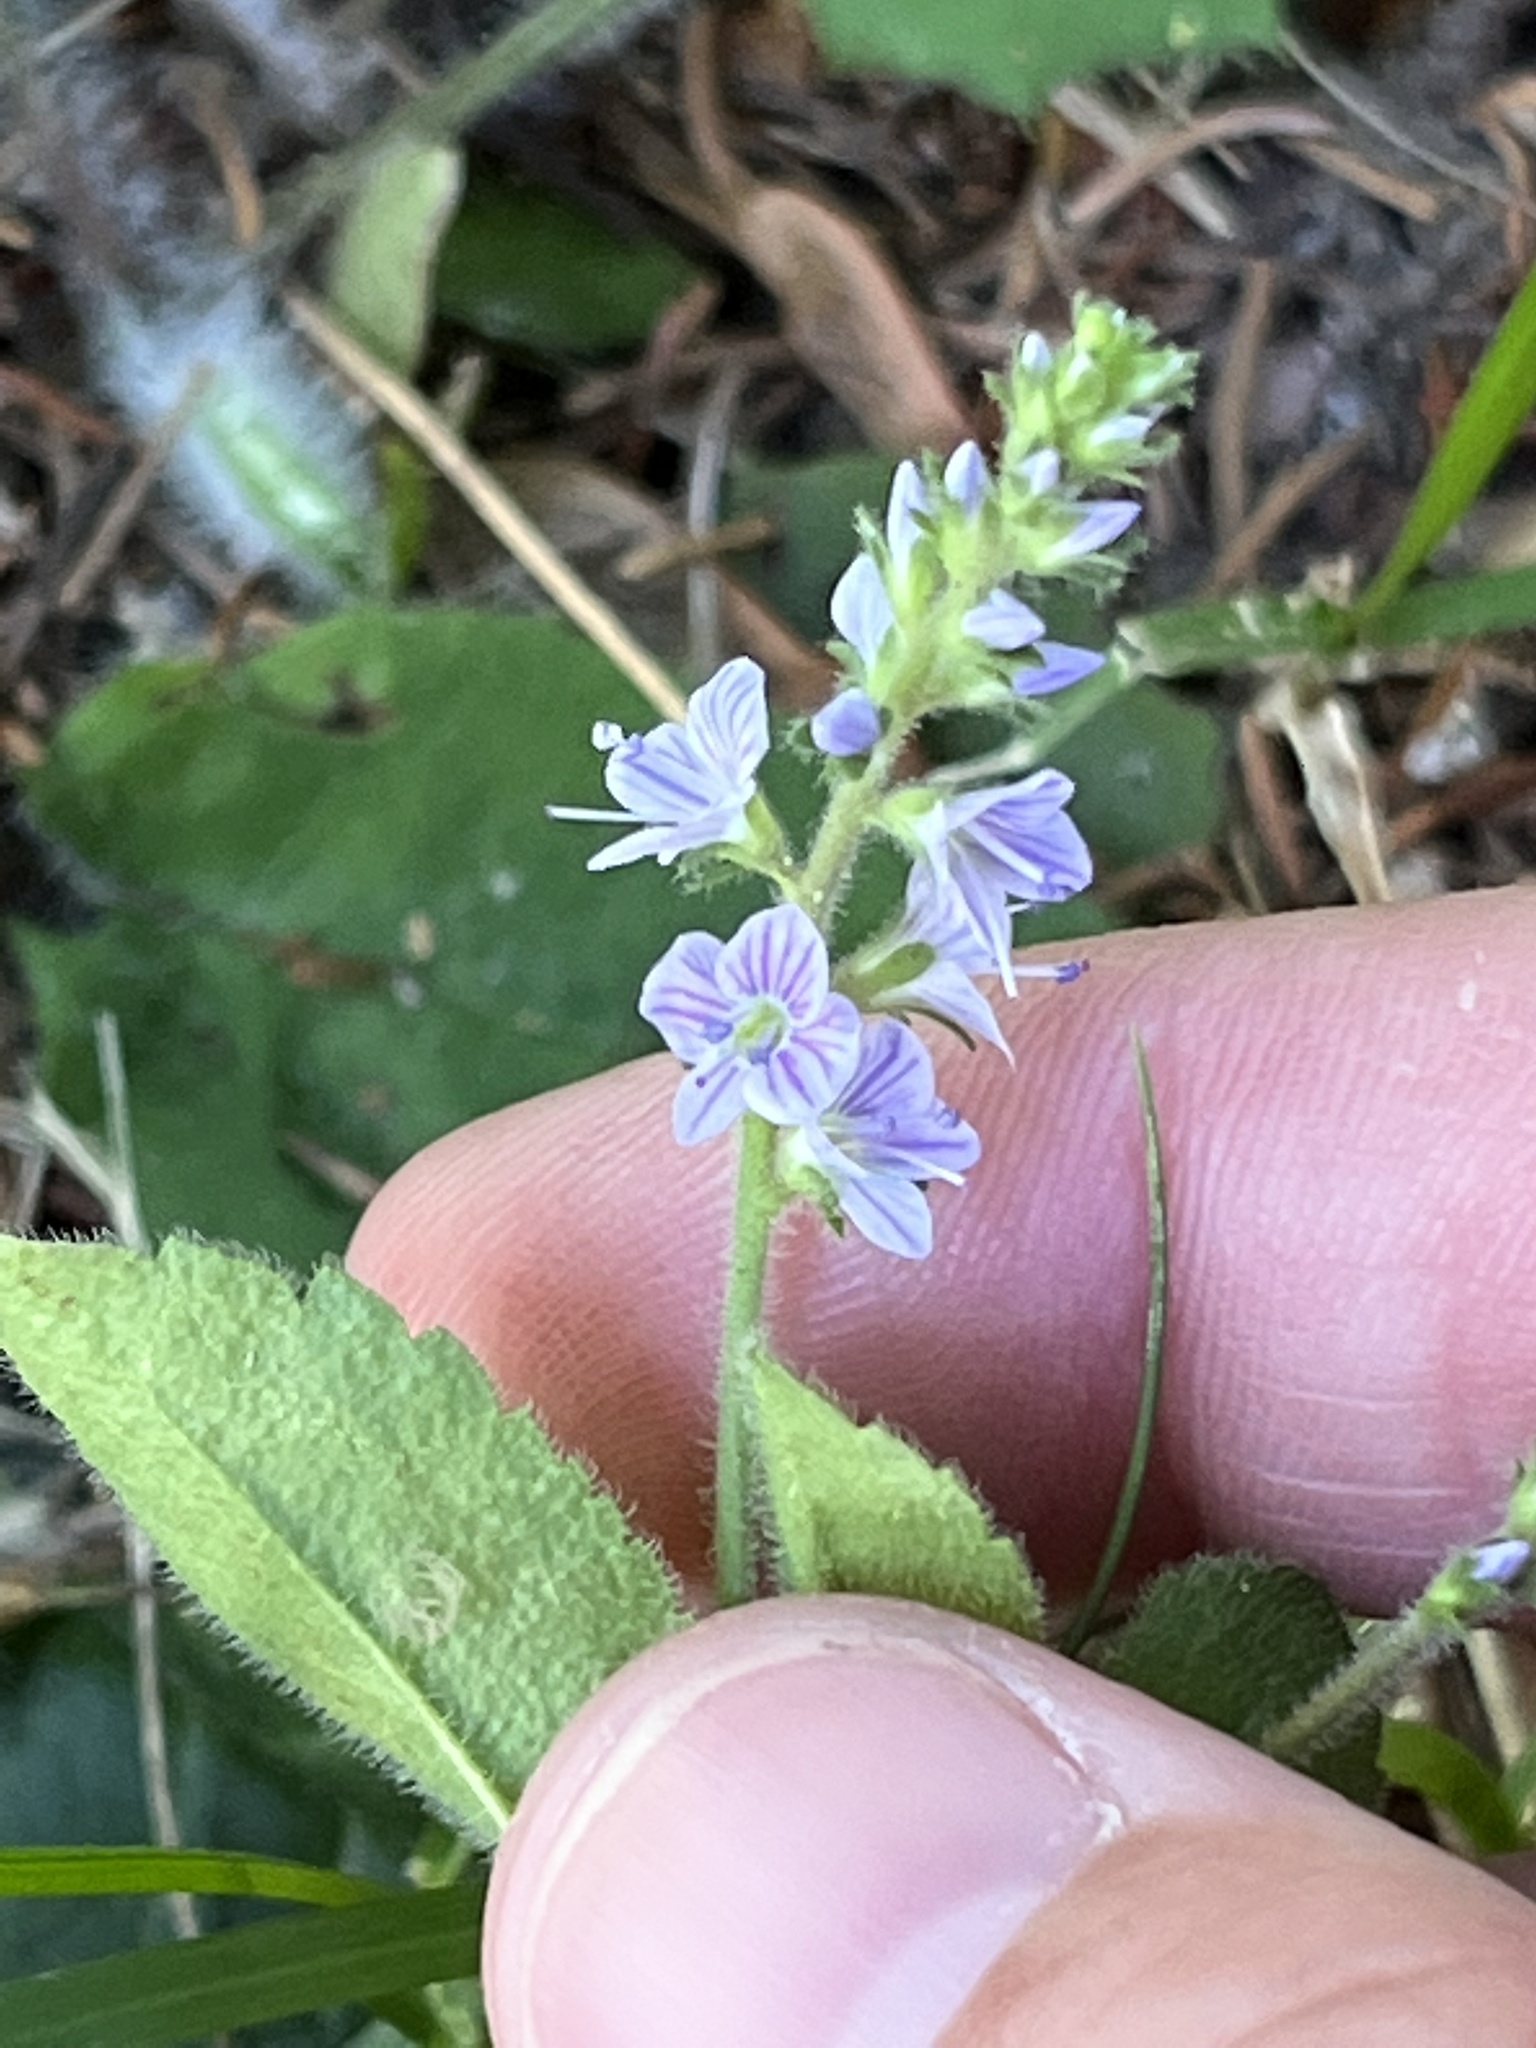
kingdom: Plantae
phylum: Tracheophyta
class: Magnoliopsida
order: Lamiales
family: Plantaginaceae
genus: Veronica
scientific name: Veronica officinalis
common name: Common speedwell
